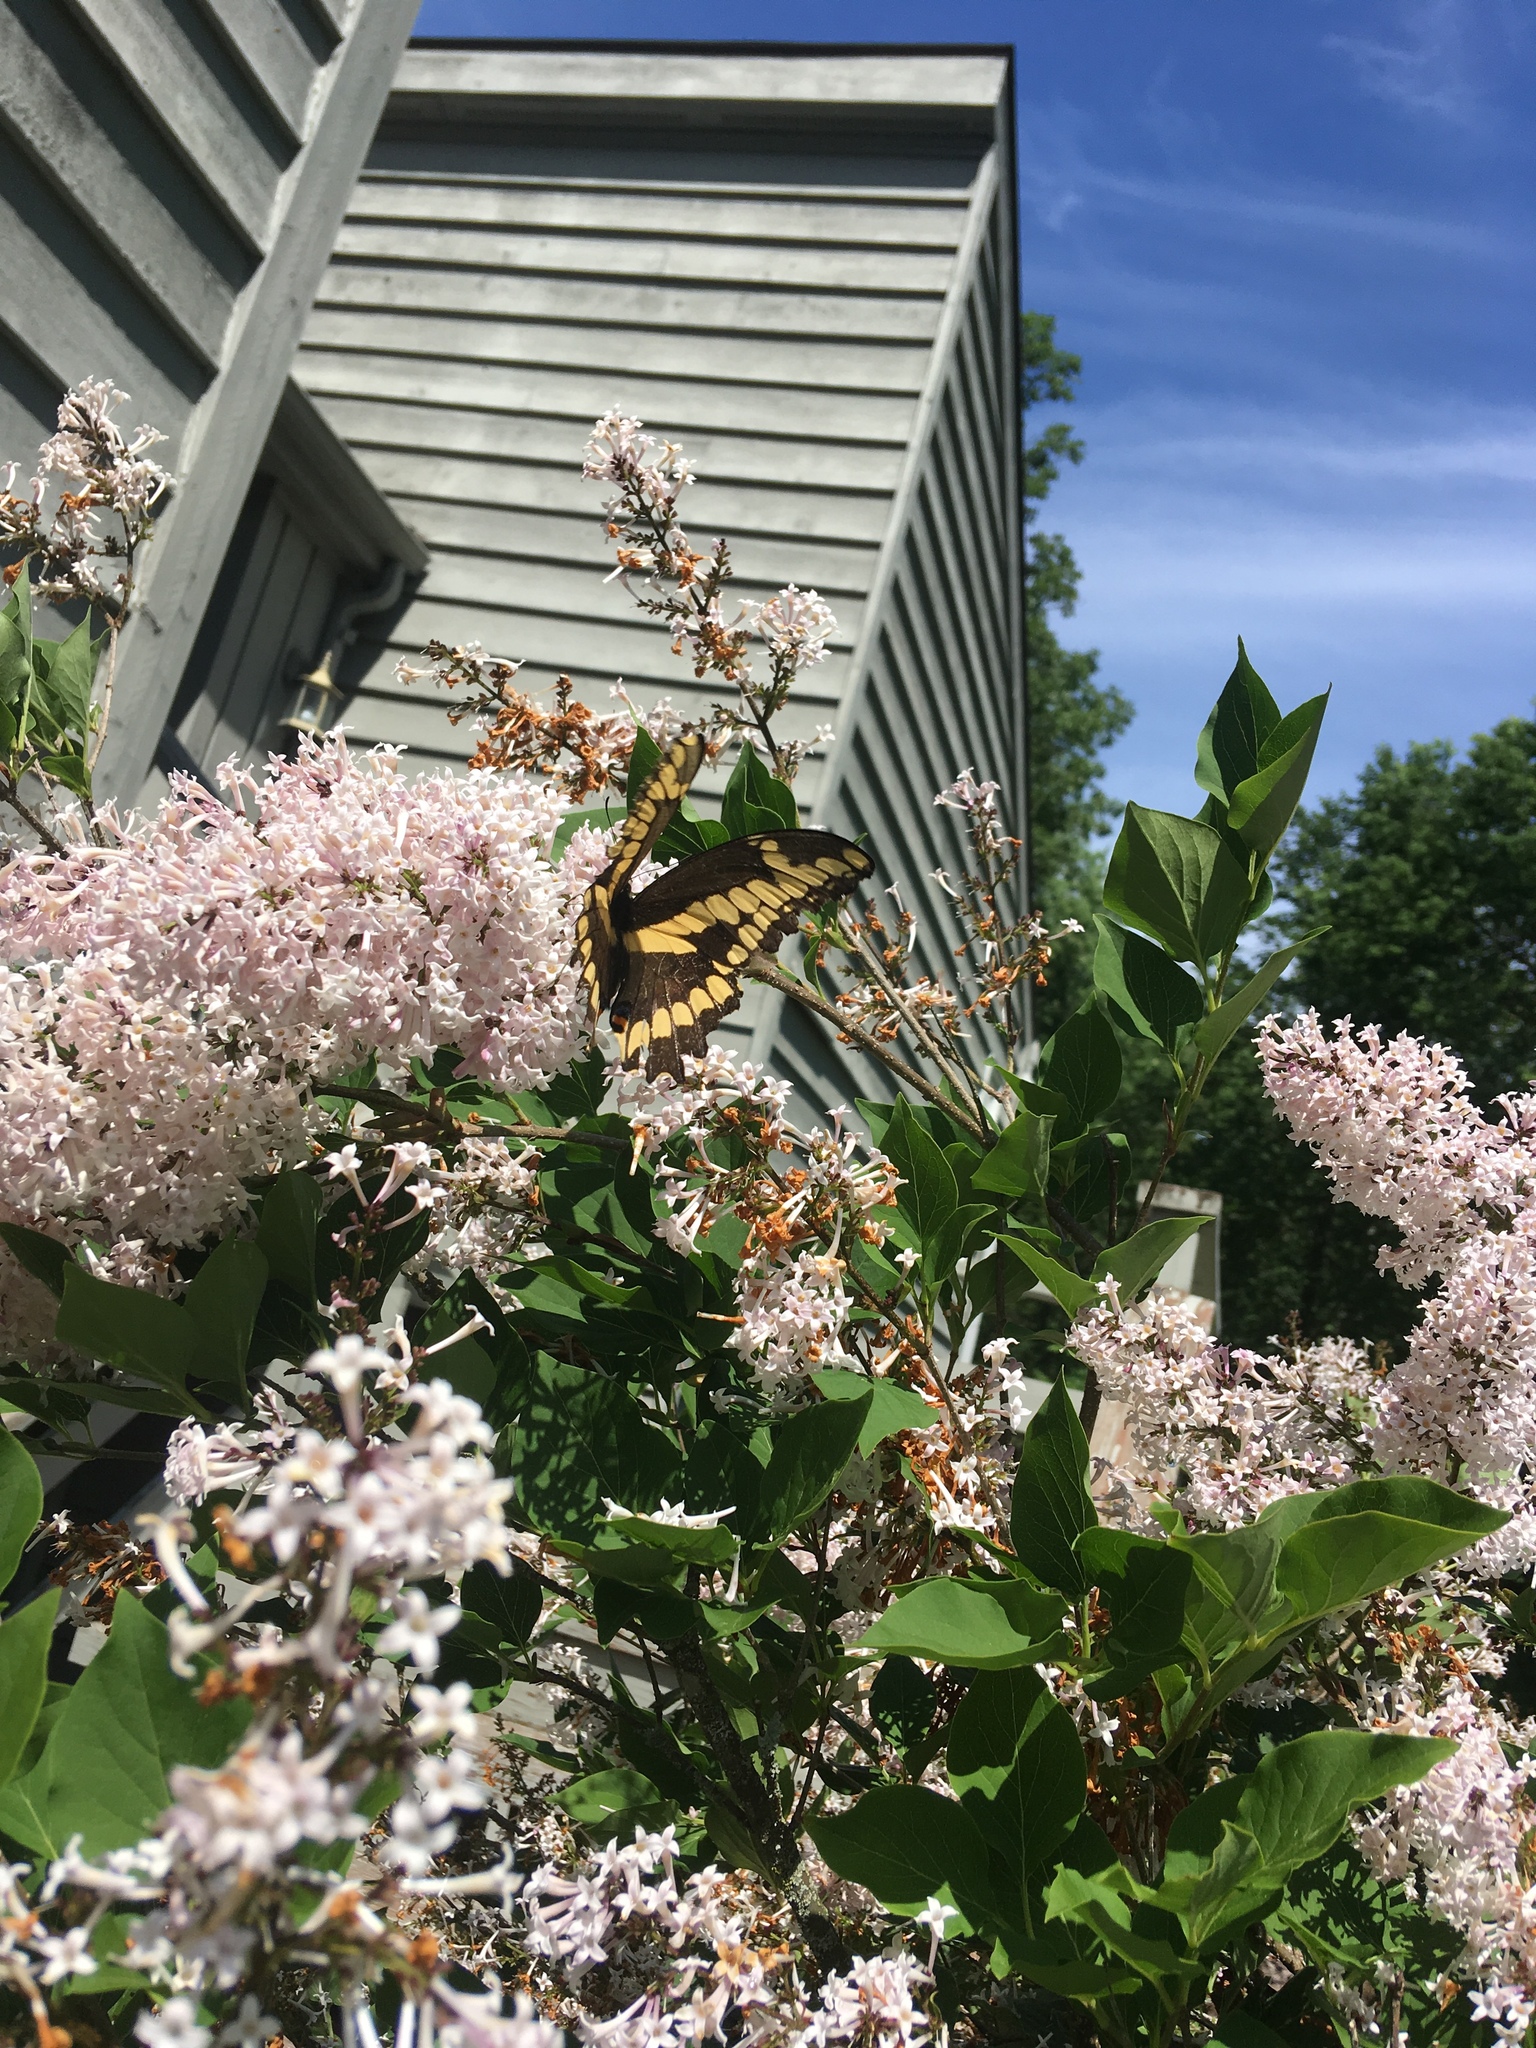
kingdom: Animalia
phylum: Arthropoda
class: Insecta
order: Lepidoptera
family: Papilionidae
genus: Papilio
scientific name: Papilio cresphontes
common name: Giant swallowtail
